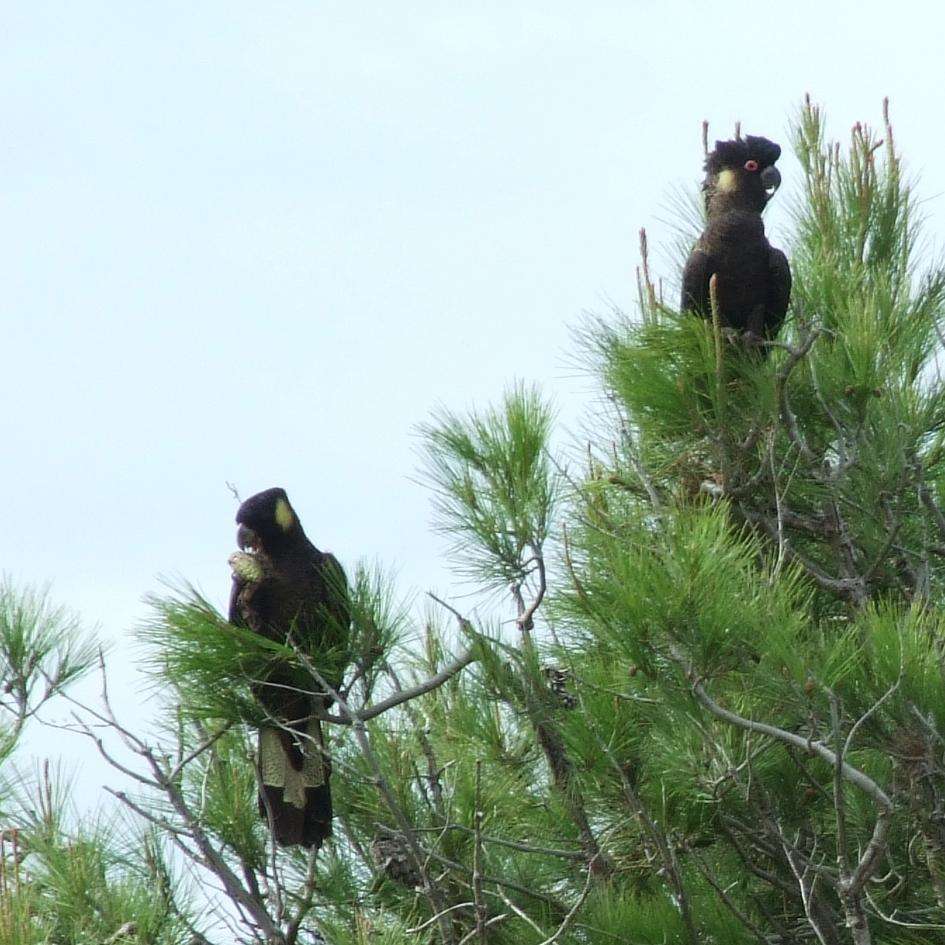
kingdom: Animalia
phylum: Chordata
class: Aves
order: Psittaciformes
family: Cacatuidae
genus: Zanda
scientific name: Zanda funerea
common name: Yellow-tailed black-cockatoo
